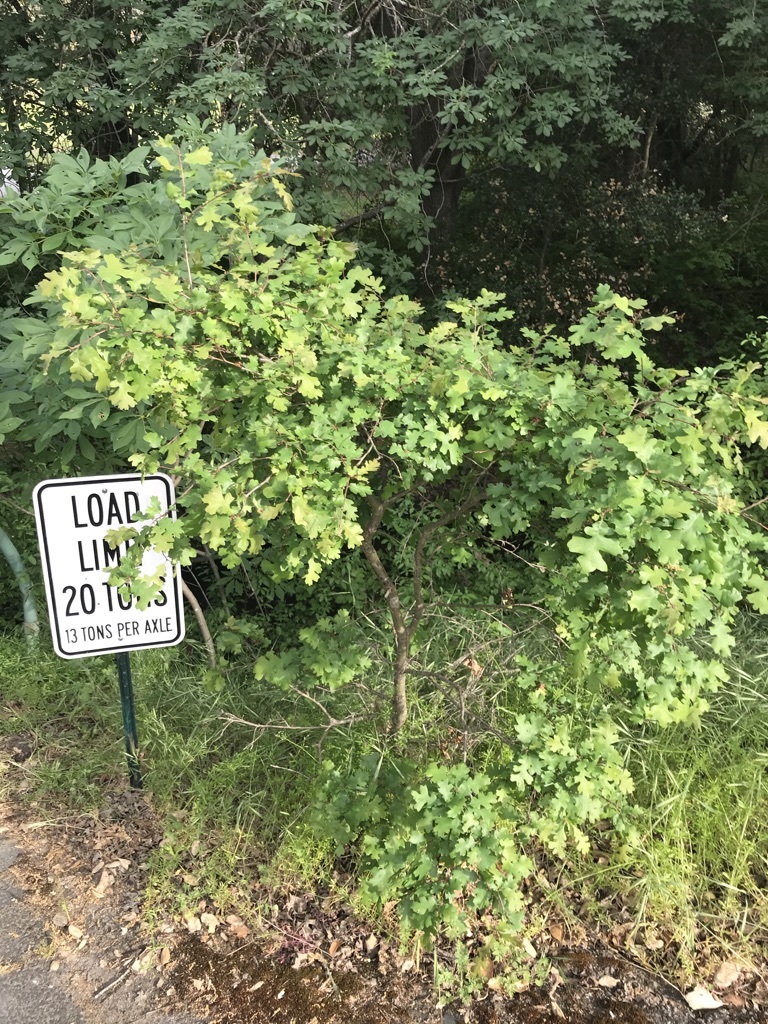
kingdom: Plantae
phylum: Tracheophyta
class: Magnoliopsida
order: Fagales
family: Fagaceae
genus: Quercus
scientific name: Quercus lobata
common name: Valley oak
